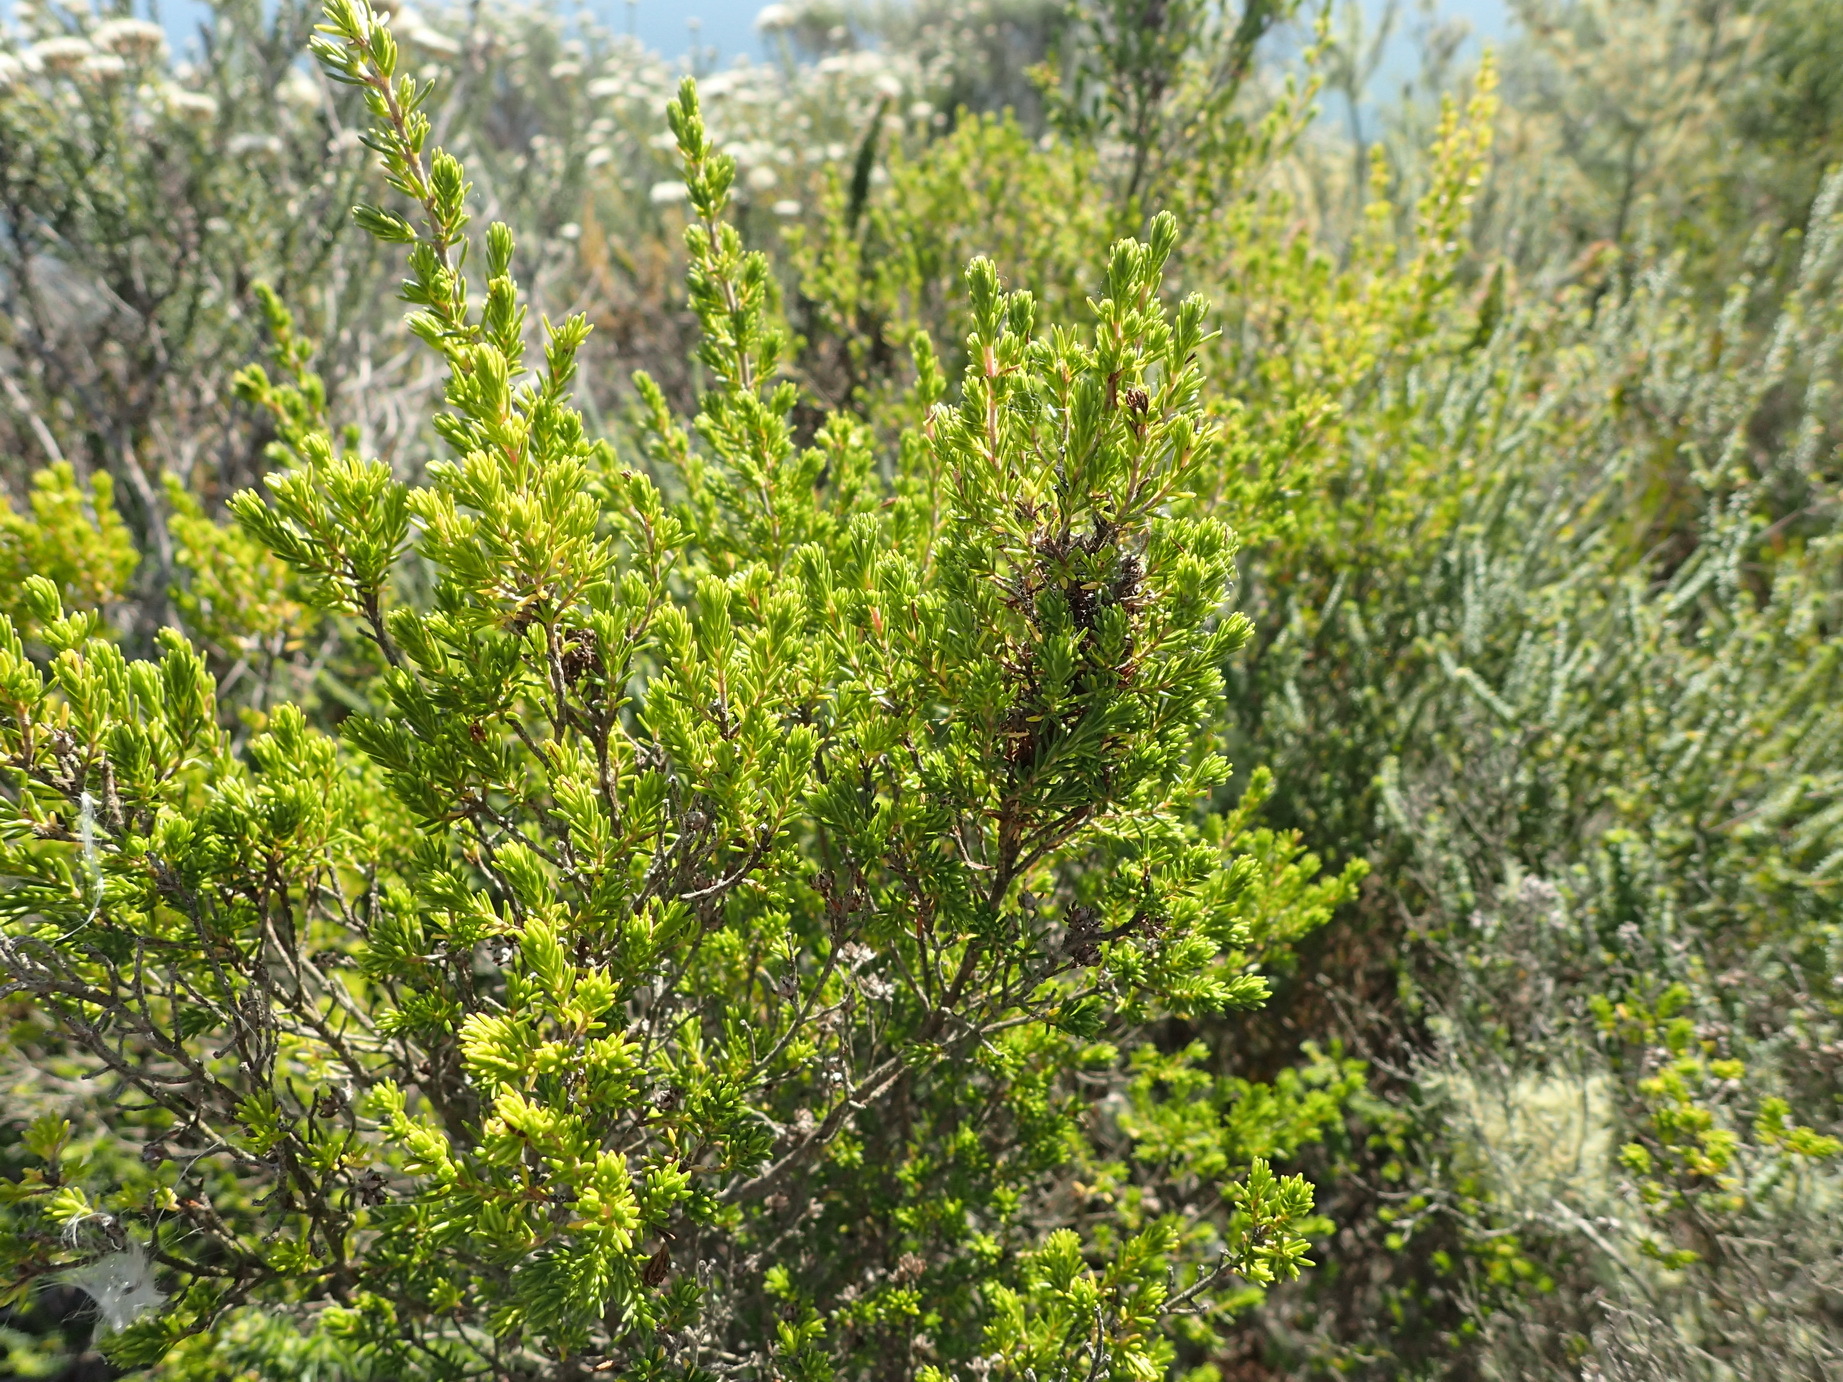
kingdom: Plantae
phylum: Tracheophyta
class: Magnoliopsida
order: Ericales
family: Ericaceae
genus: Erica
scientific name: Erica glumiflora
